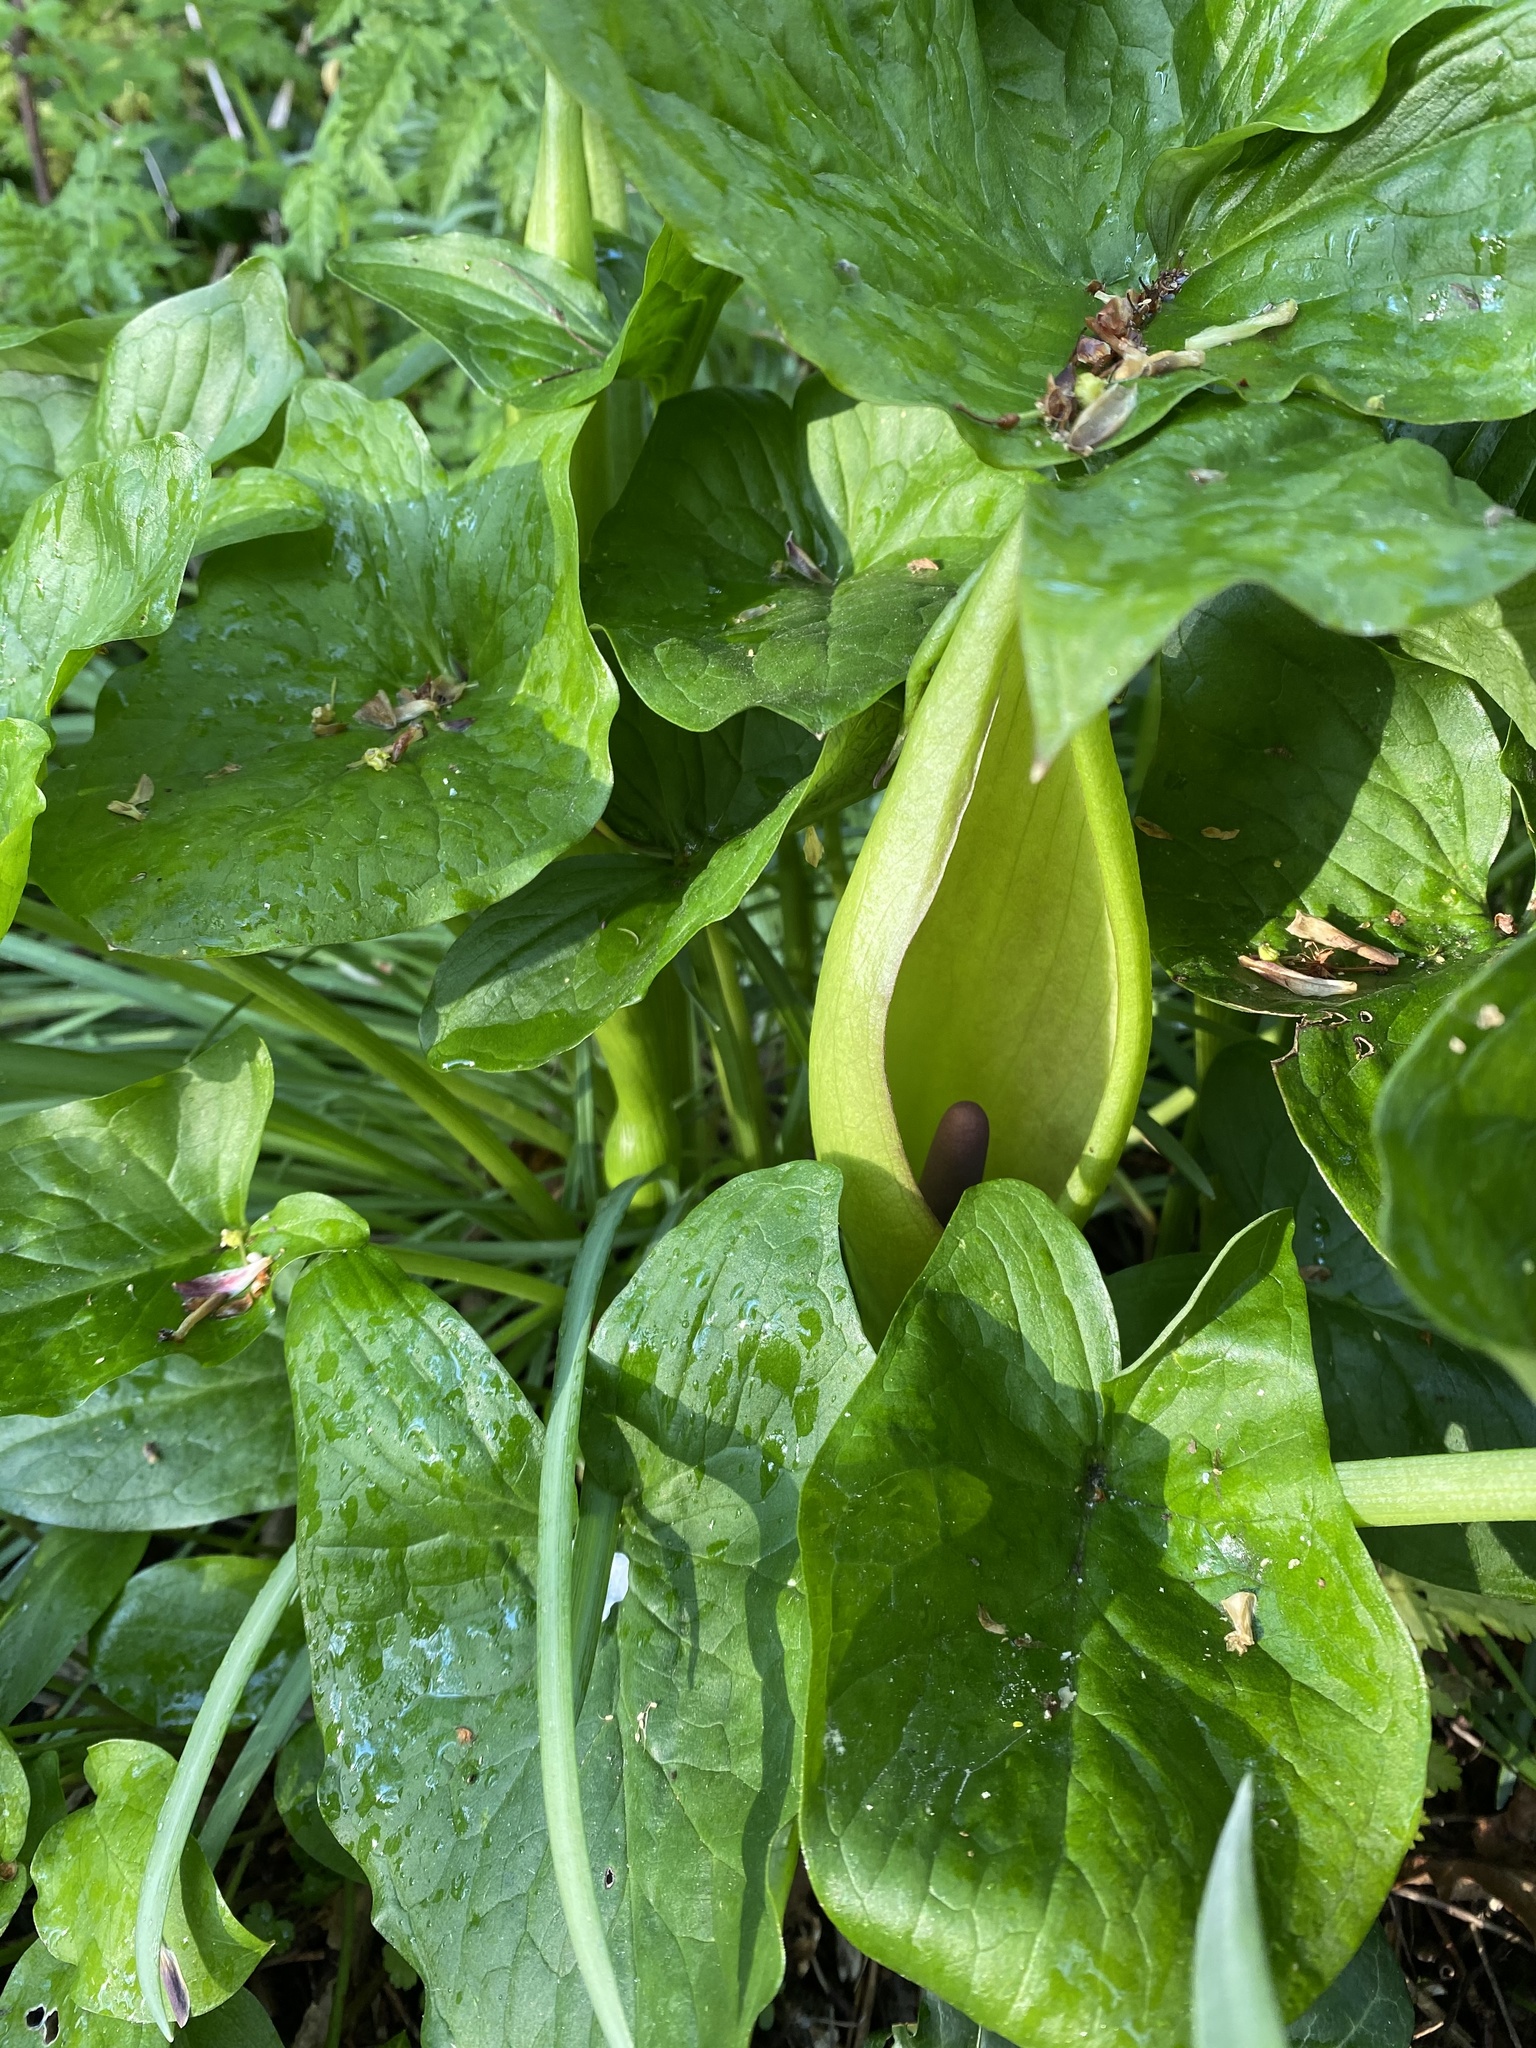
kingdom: Plantae
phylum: Tracheophyta
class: Liliopsida
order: Alismatales
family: Araceae
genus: Arum
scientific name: Arum maculatum
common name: Lords-and-ladies
